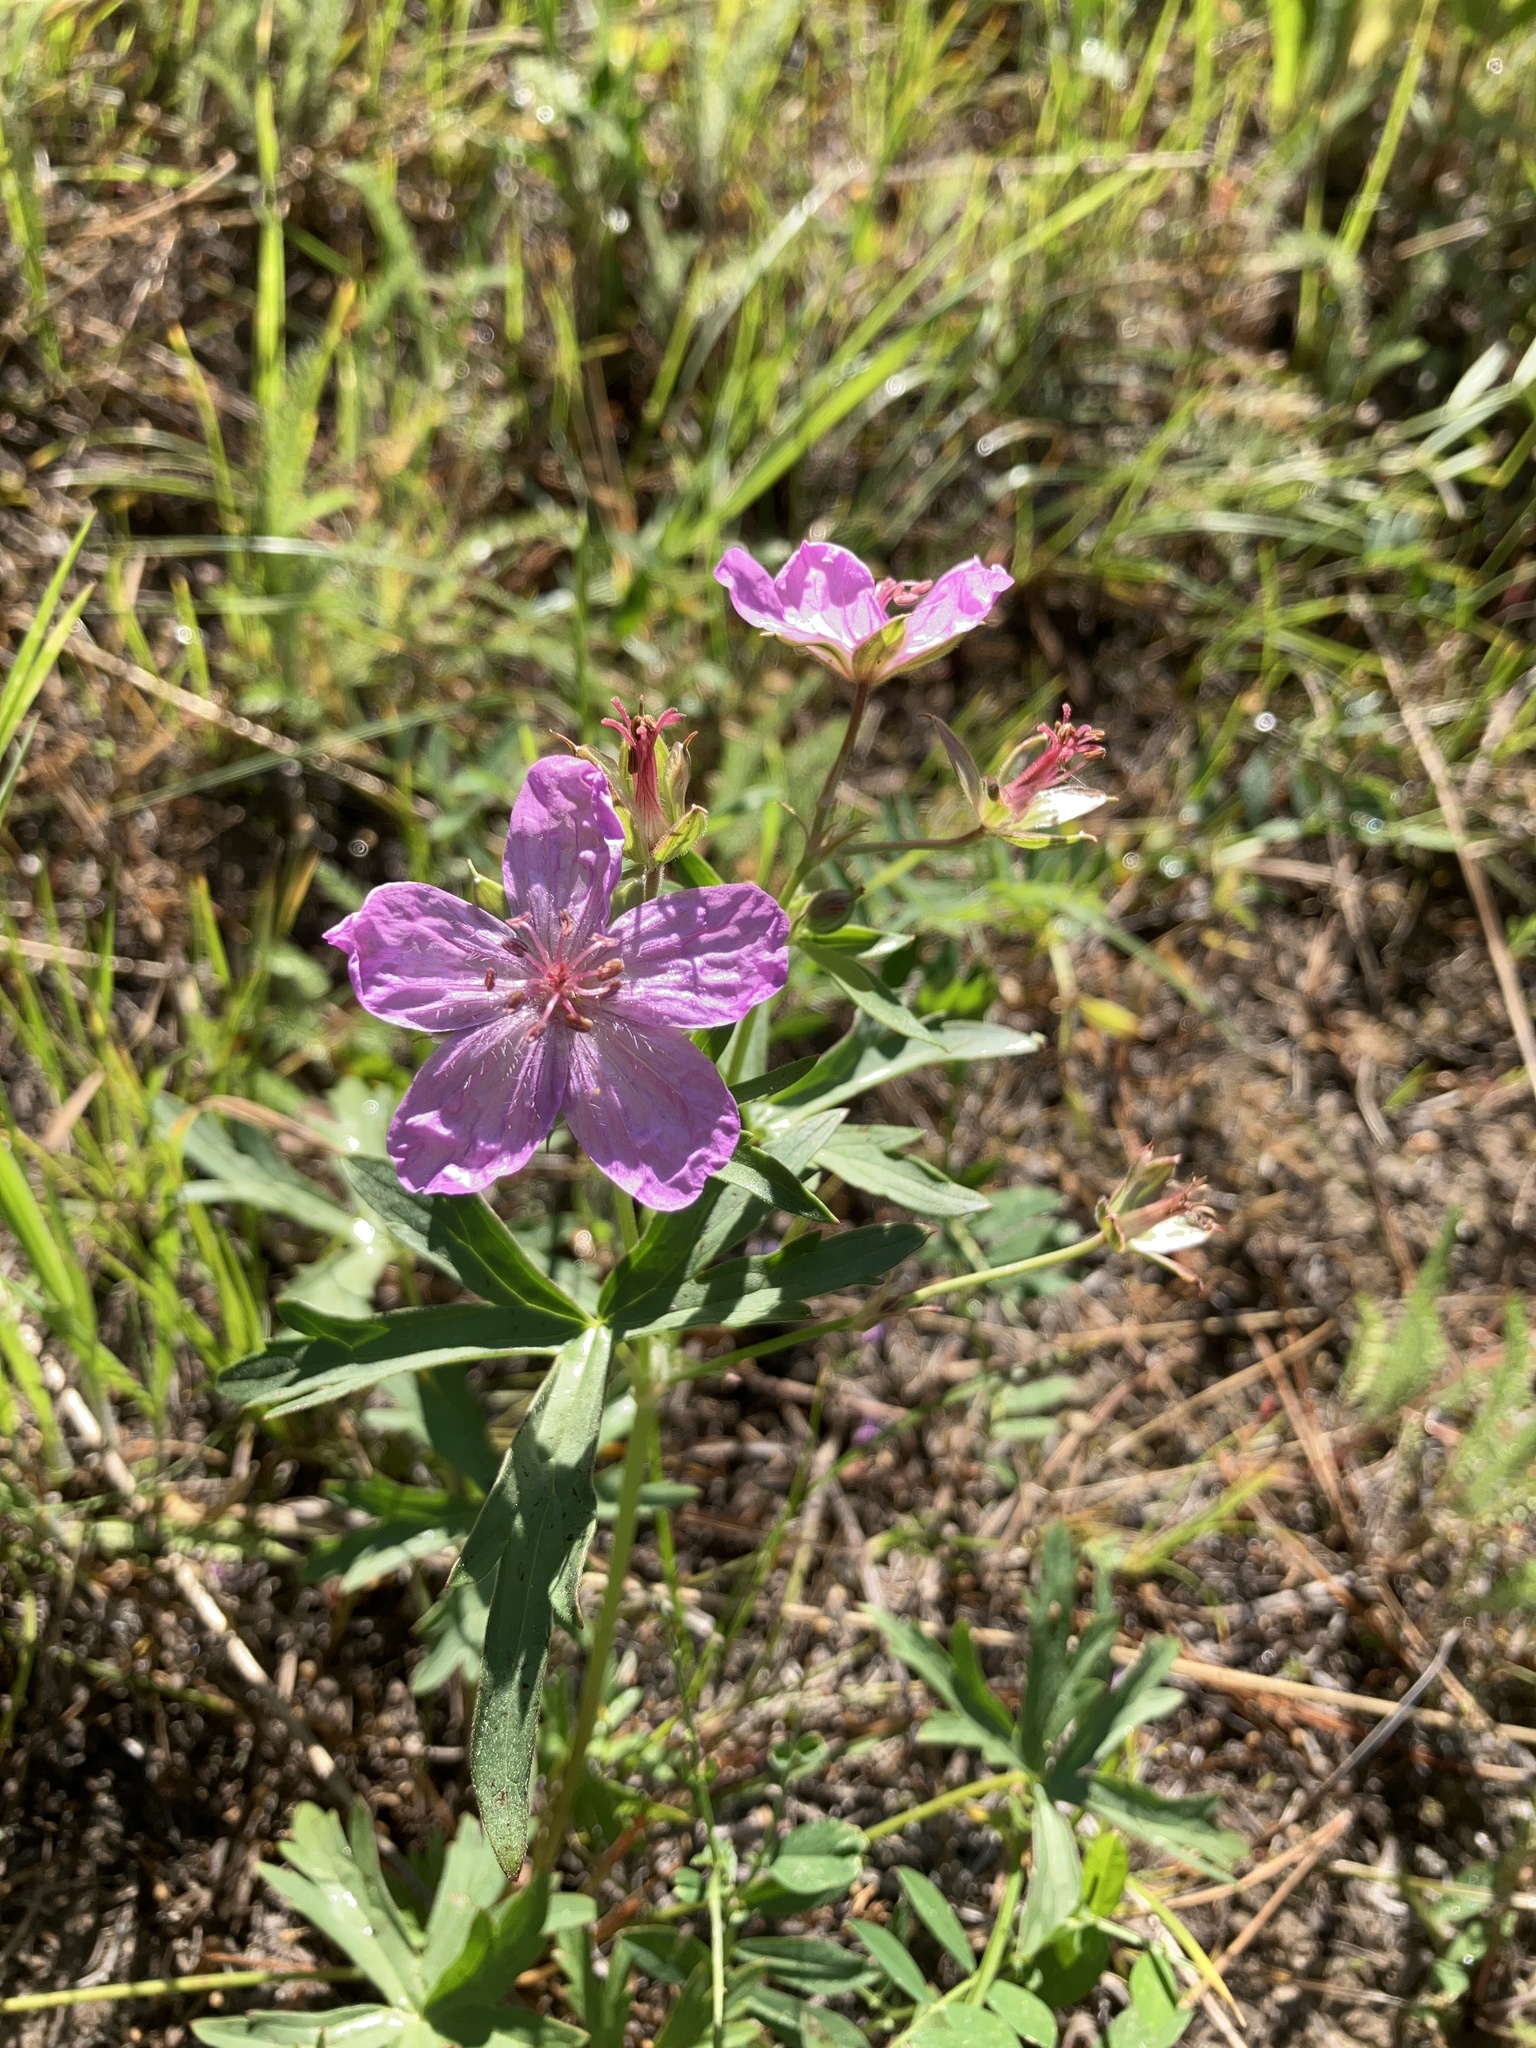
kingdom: Plantae
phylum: Tracheophyta
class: Magnoliopsida
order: Geraniales
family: Geraniaceae
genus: Geranium
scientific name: Geranium viscosissimum
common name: Purple geranium
